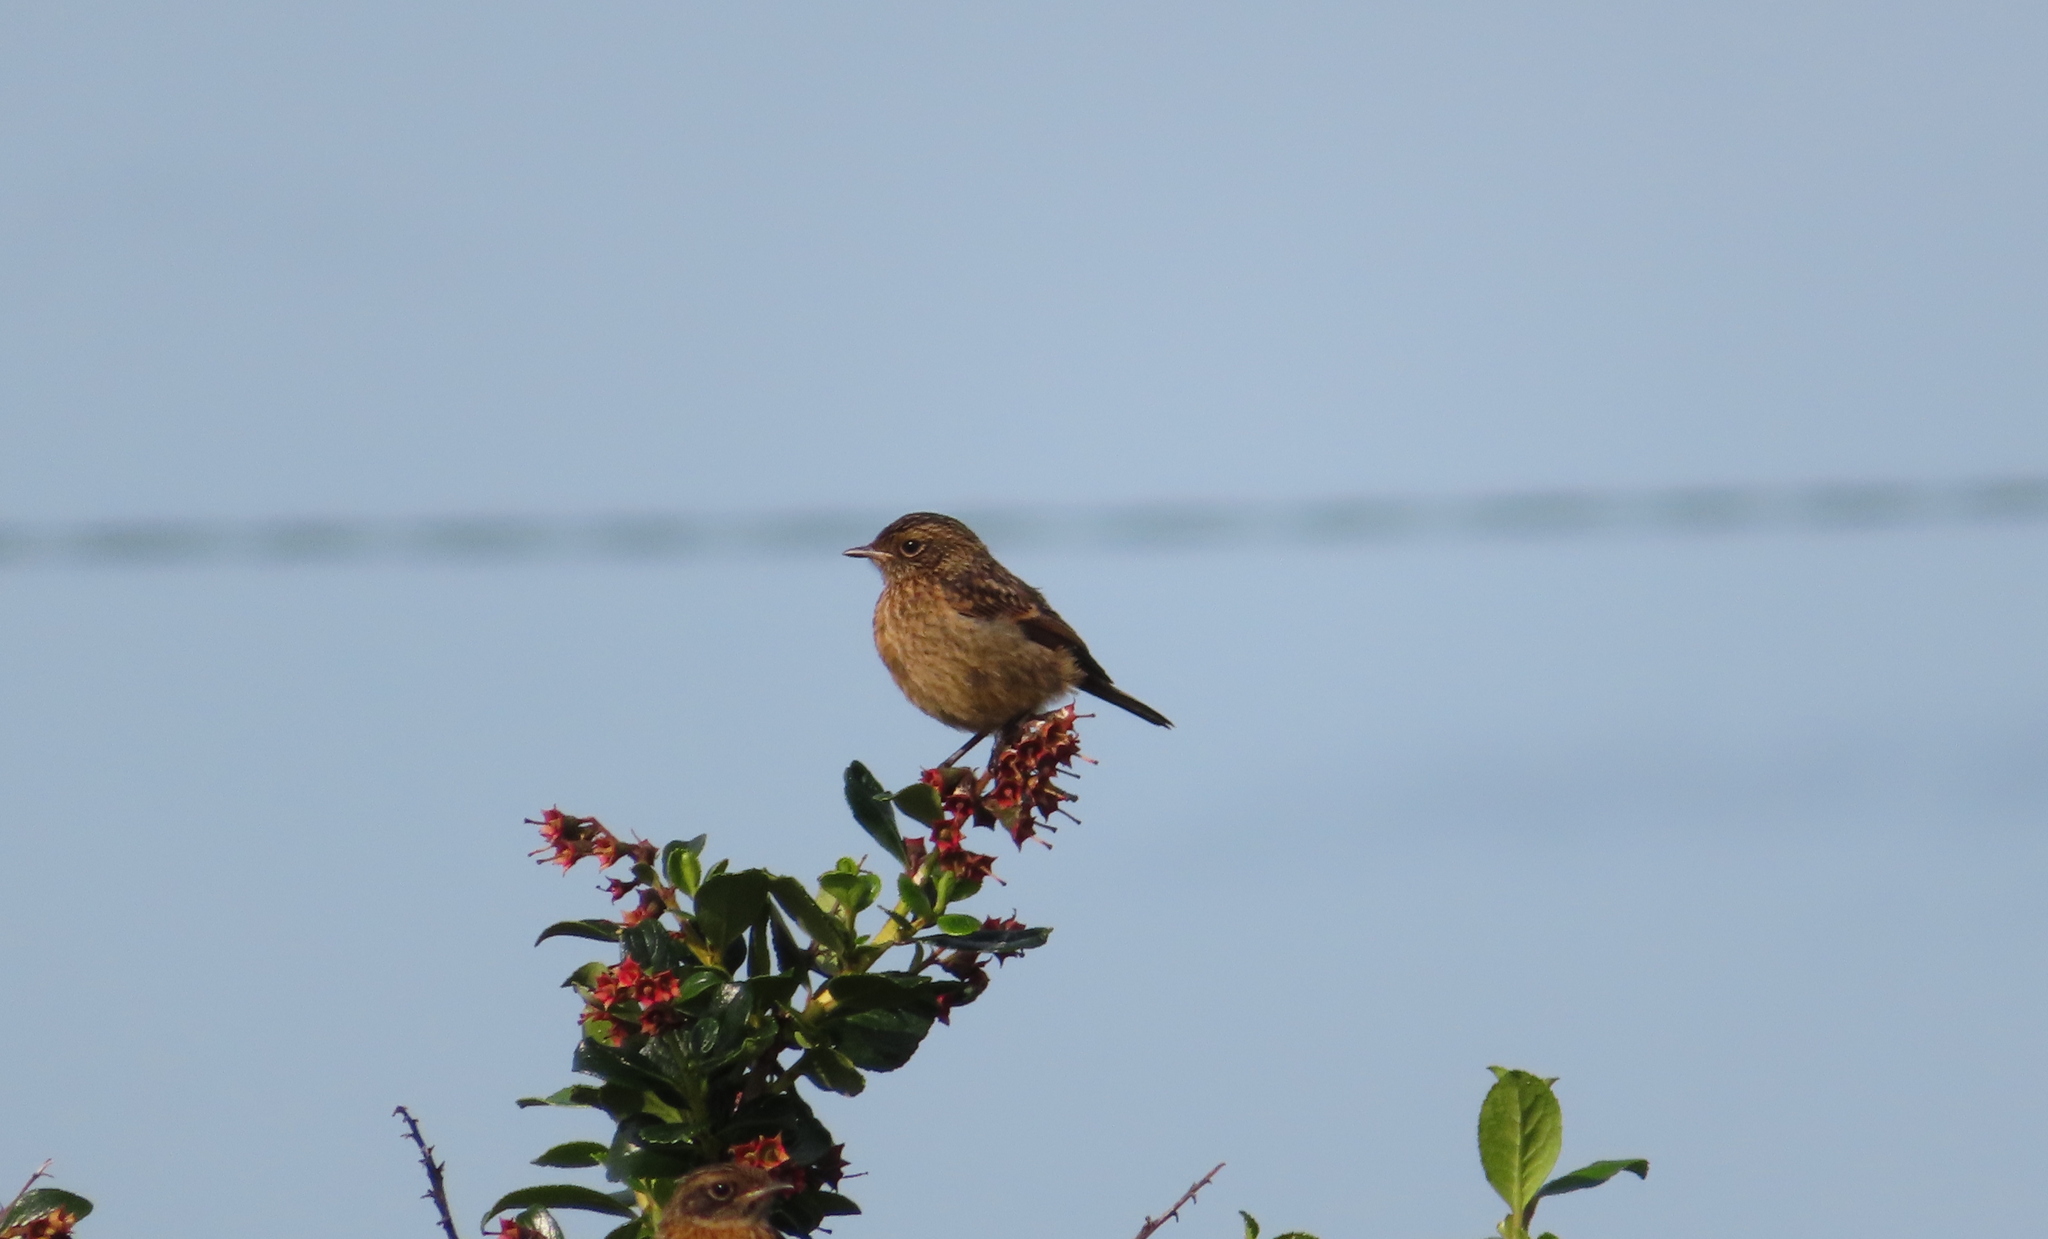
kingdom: Animalia
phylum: Chordata
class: Aves
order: Passeriformes
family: Muscicapidae
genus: Saxicola
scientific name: Saxicola rubicola
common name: European stonechat
